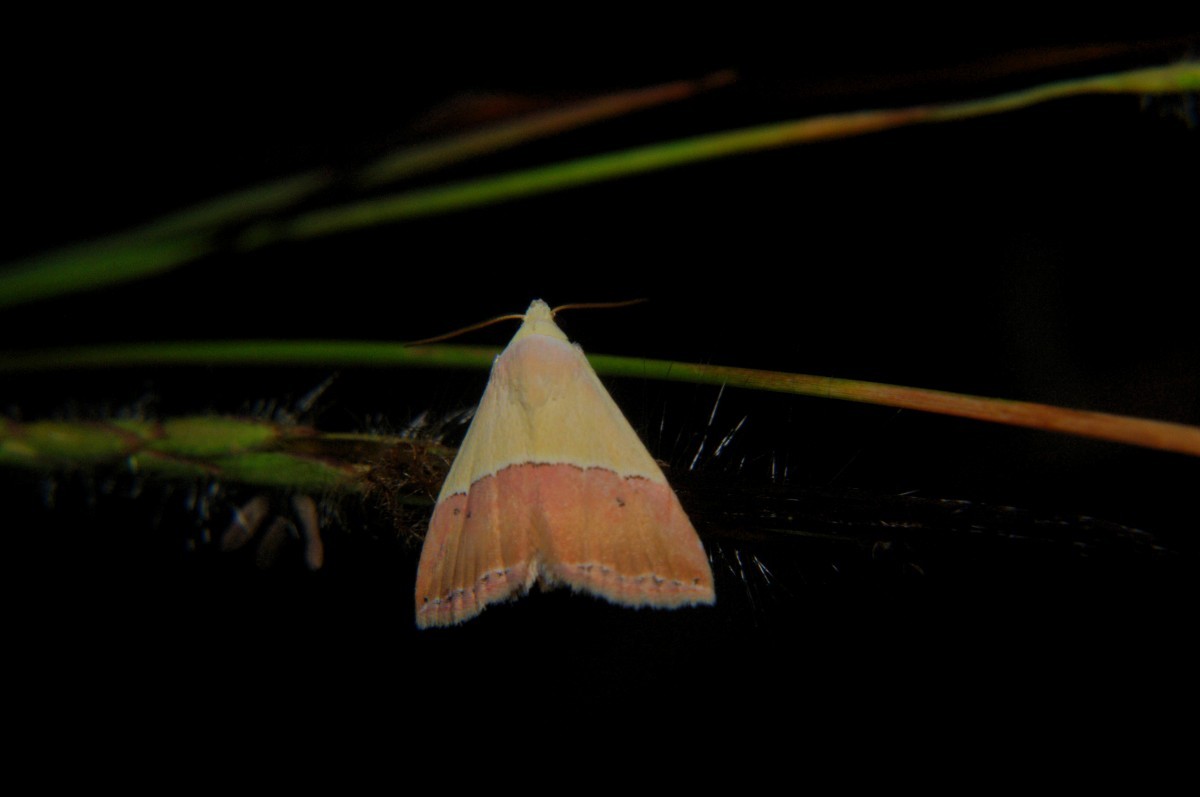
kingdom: Animalia
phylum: Arthropoda
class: Insecta
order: Lepidoptera
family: Noctuidae
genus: Eublemma
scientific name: Eublemma accedens
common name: Moth
